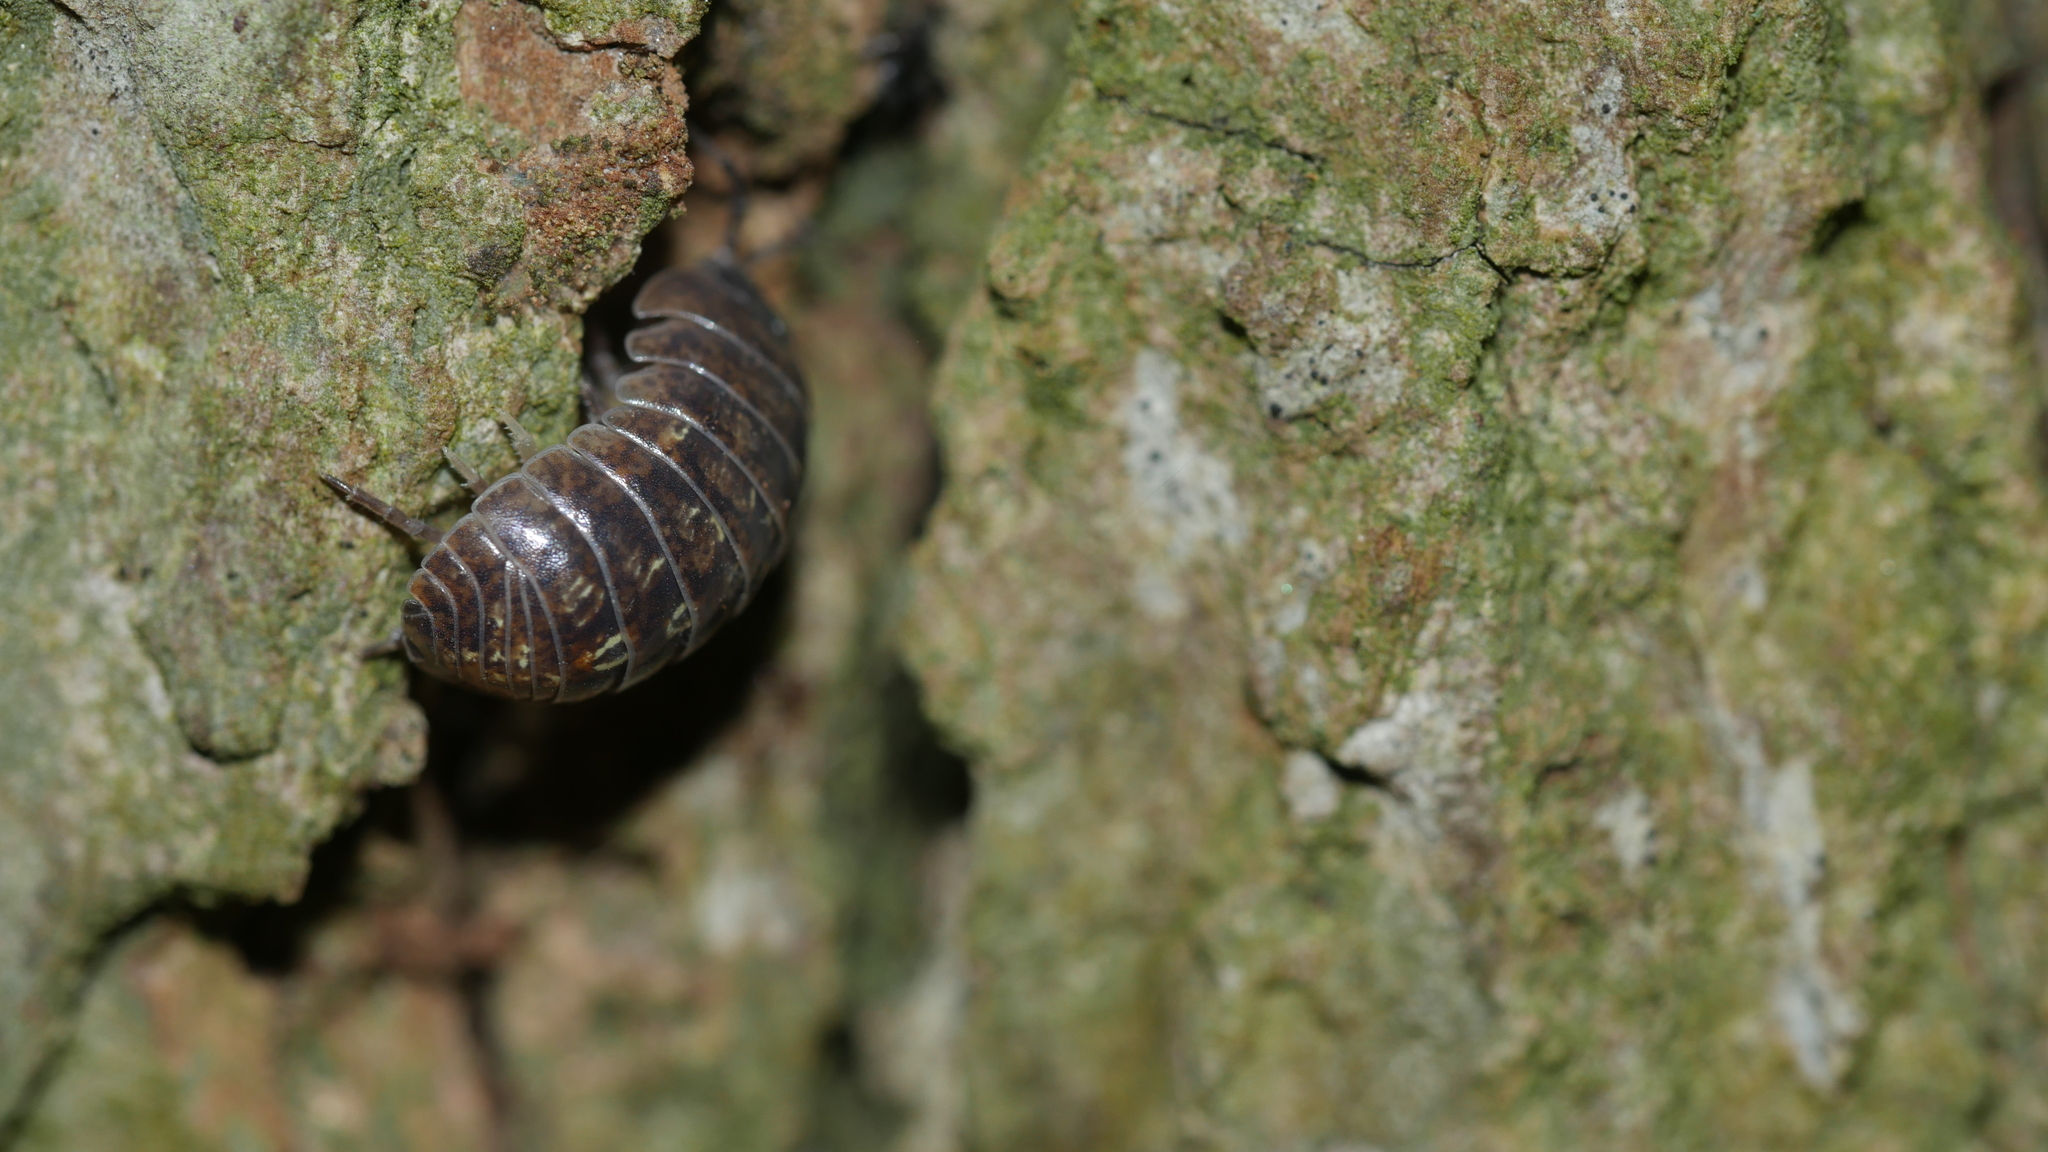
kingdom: Animalia
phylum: Arthropoda
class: Malacostraca
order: Isopoda
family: Armadillidiidae
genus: Armadillidium
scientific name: Armadillidium vulgare
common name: Common pill woodlouse
